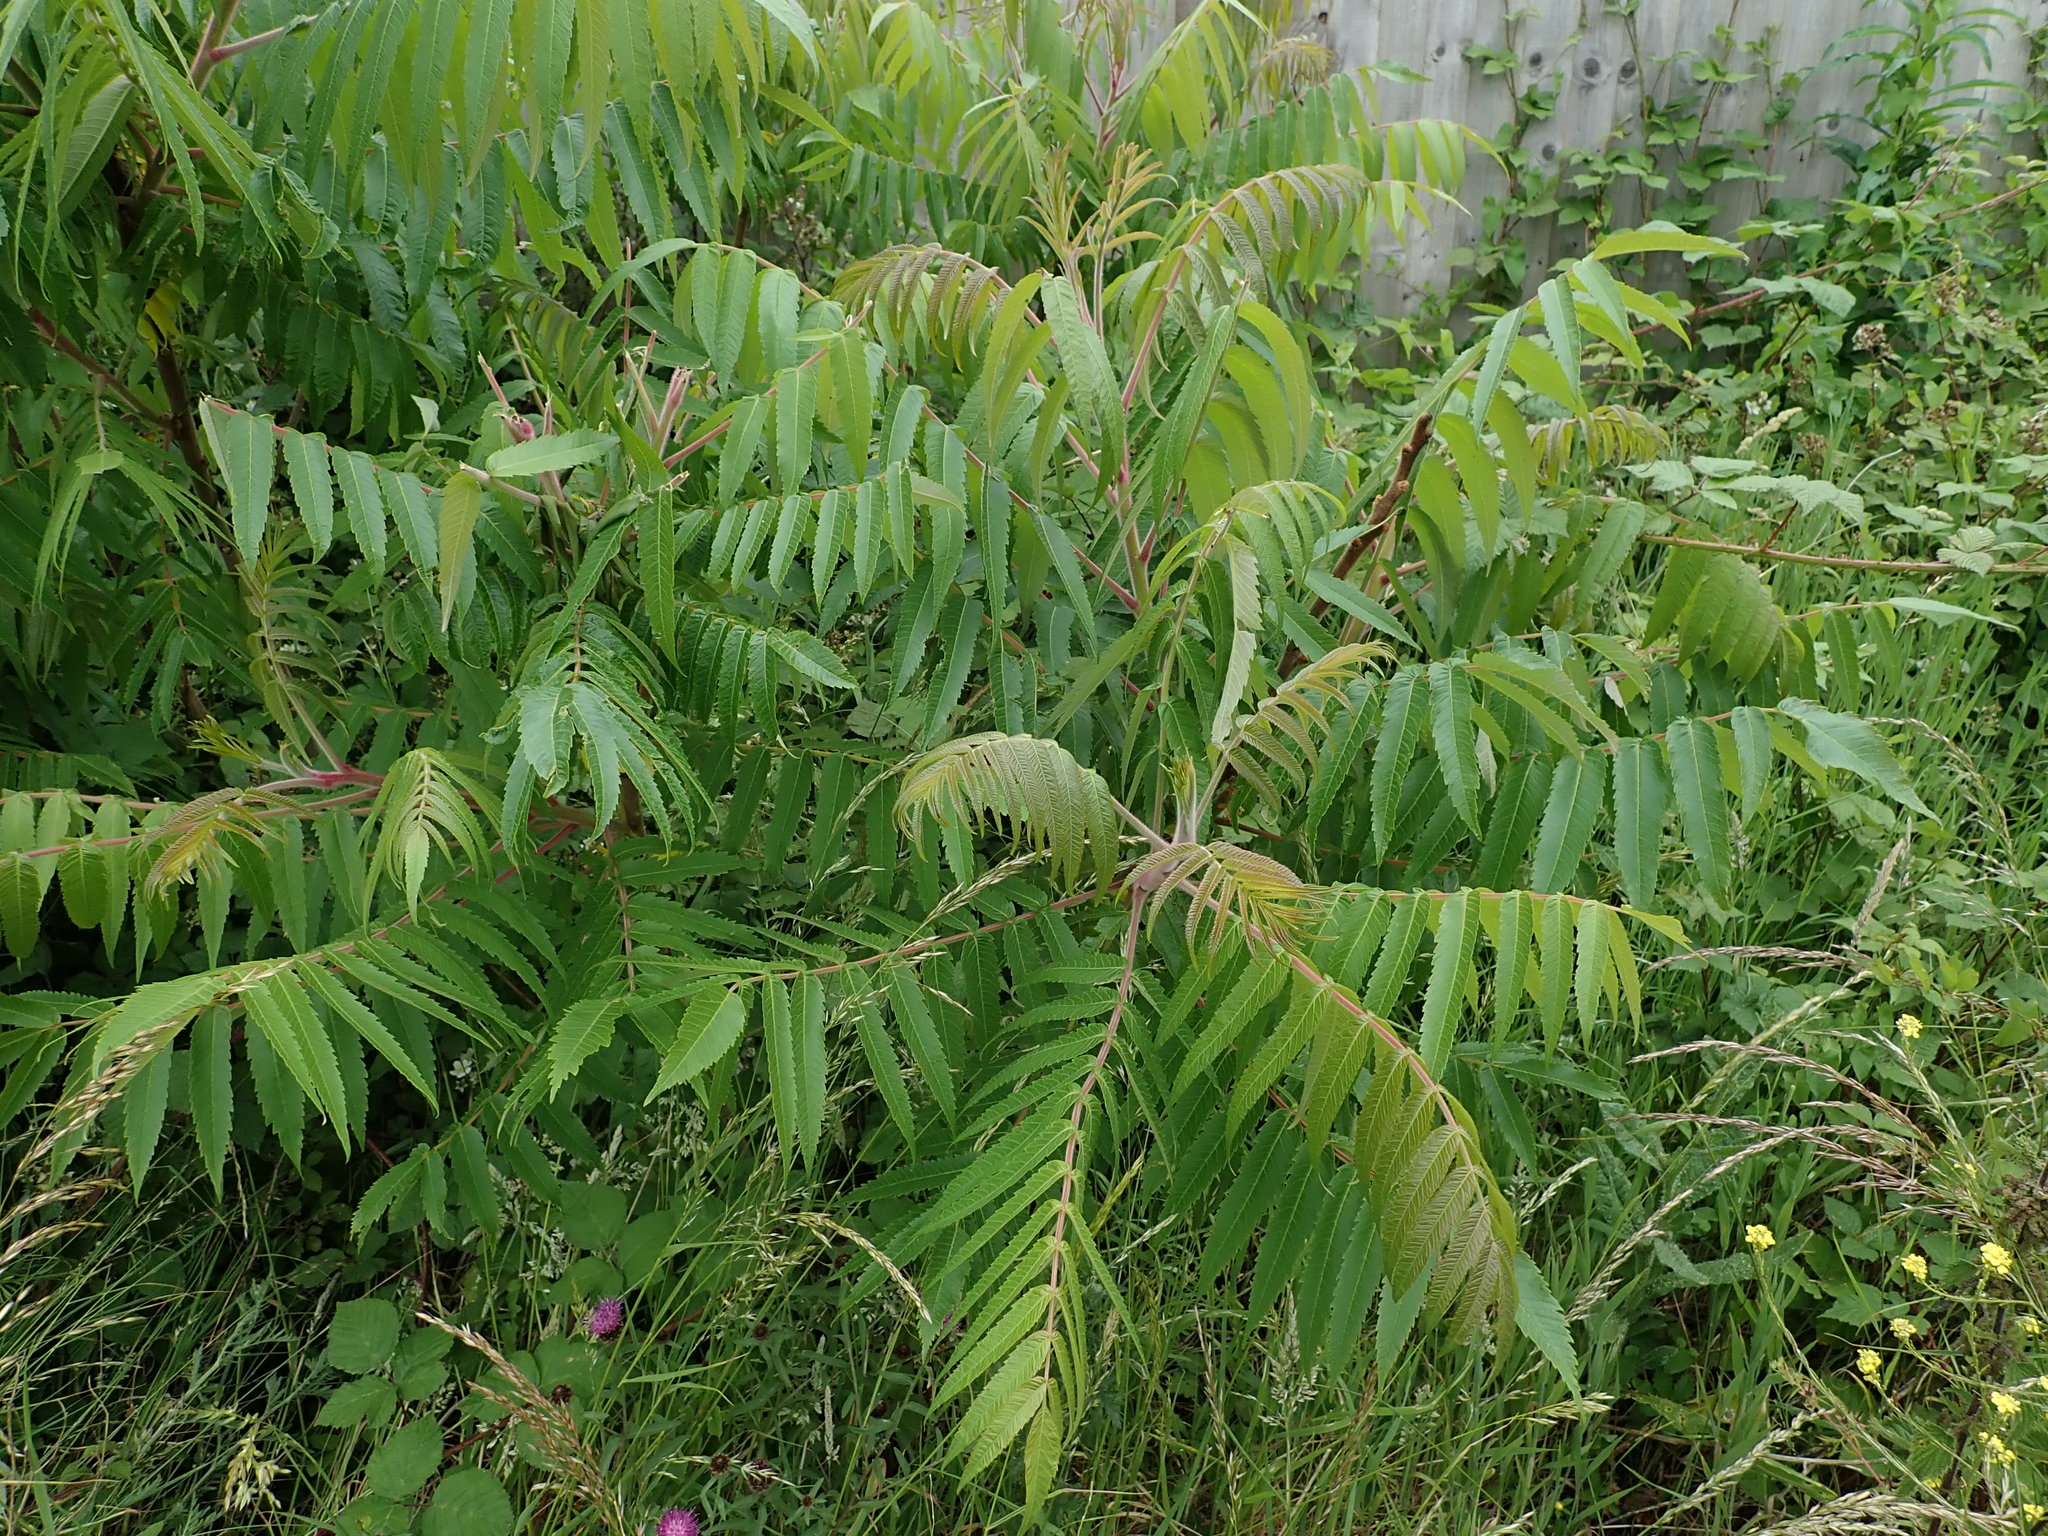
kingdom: Plantae
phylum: Tracheophyta
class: Magnoliopsida
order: Sapindales
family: Anacardiaceae
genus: Rhus
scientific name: Rhus typhina
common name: Staghorn sumac
